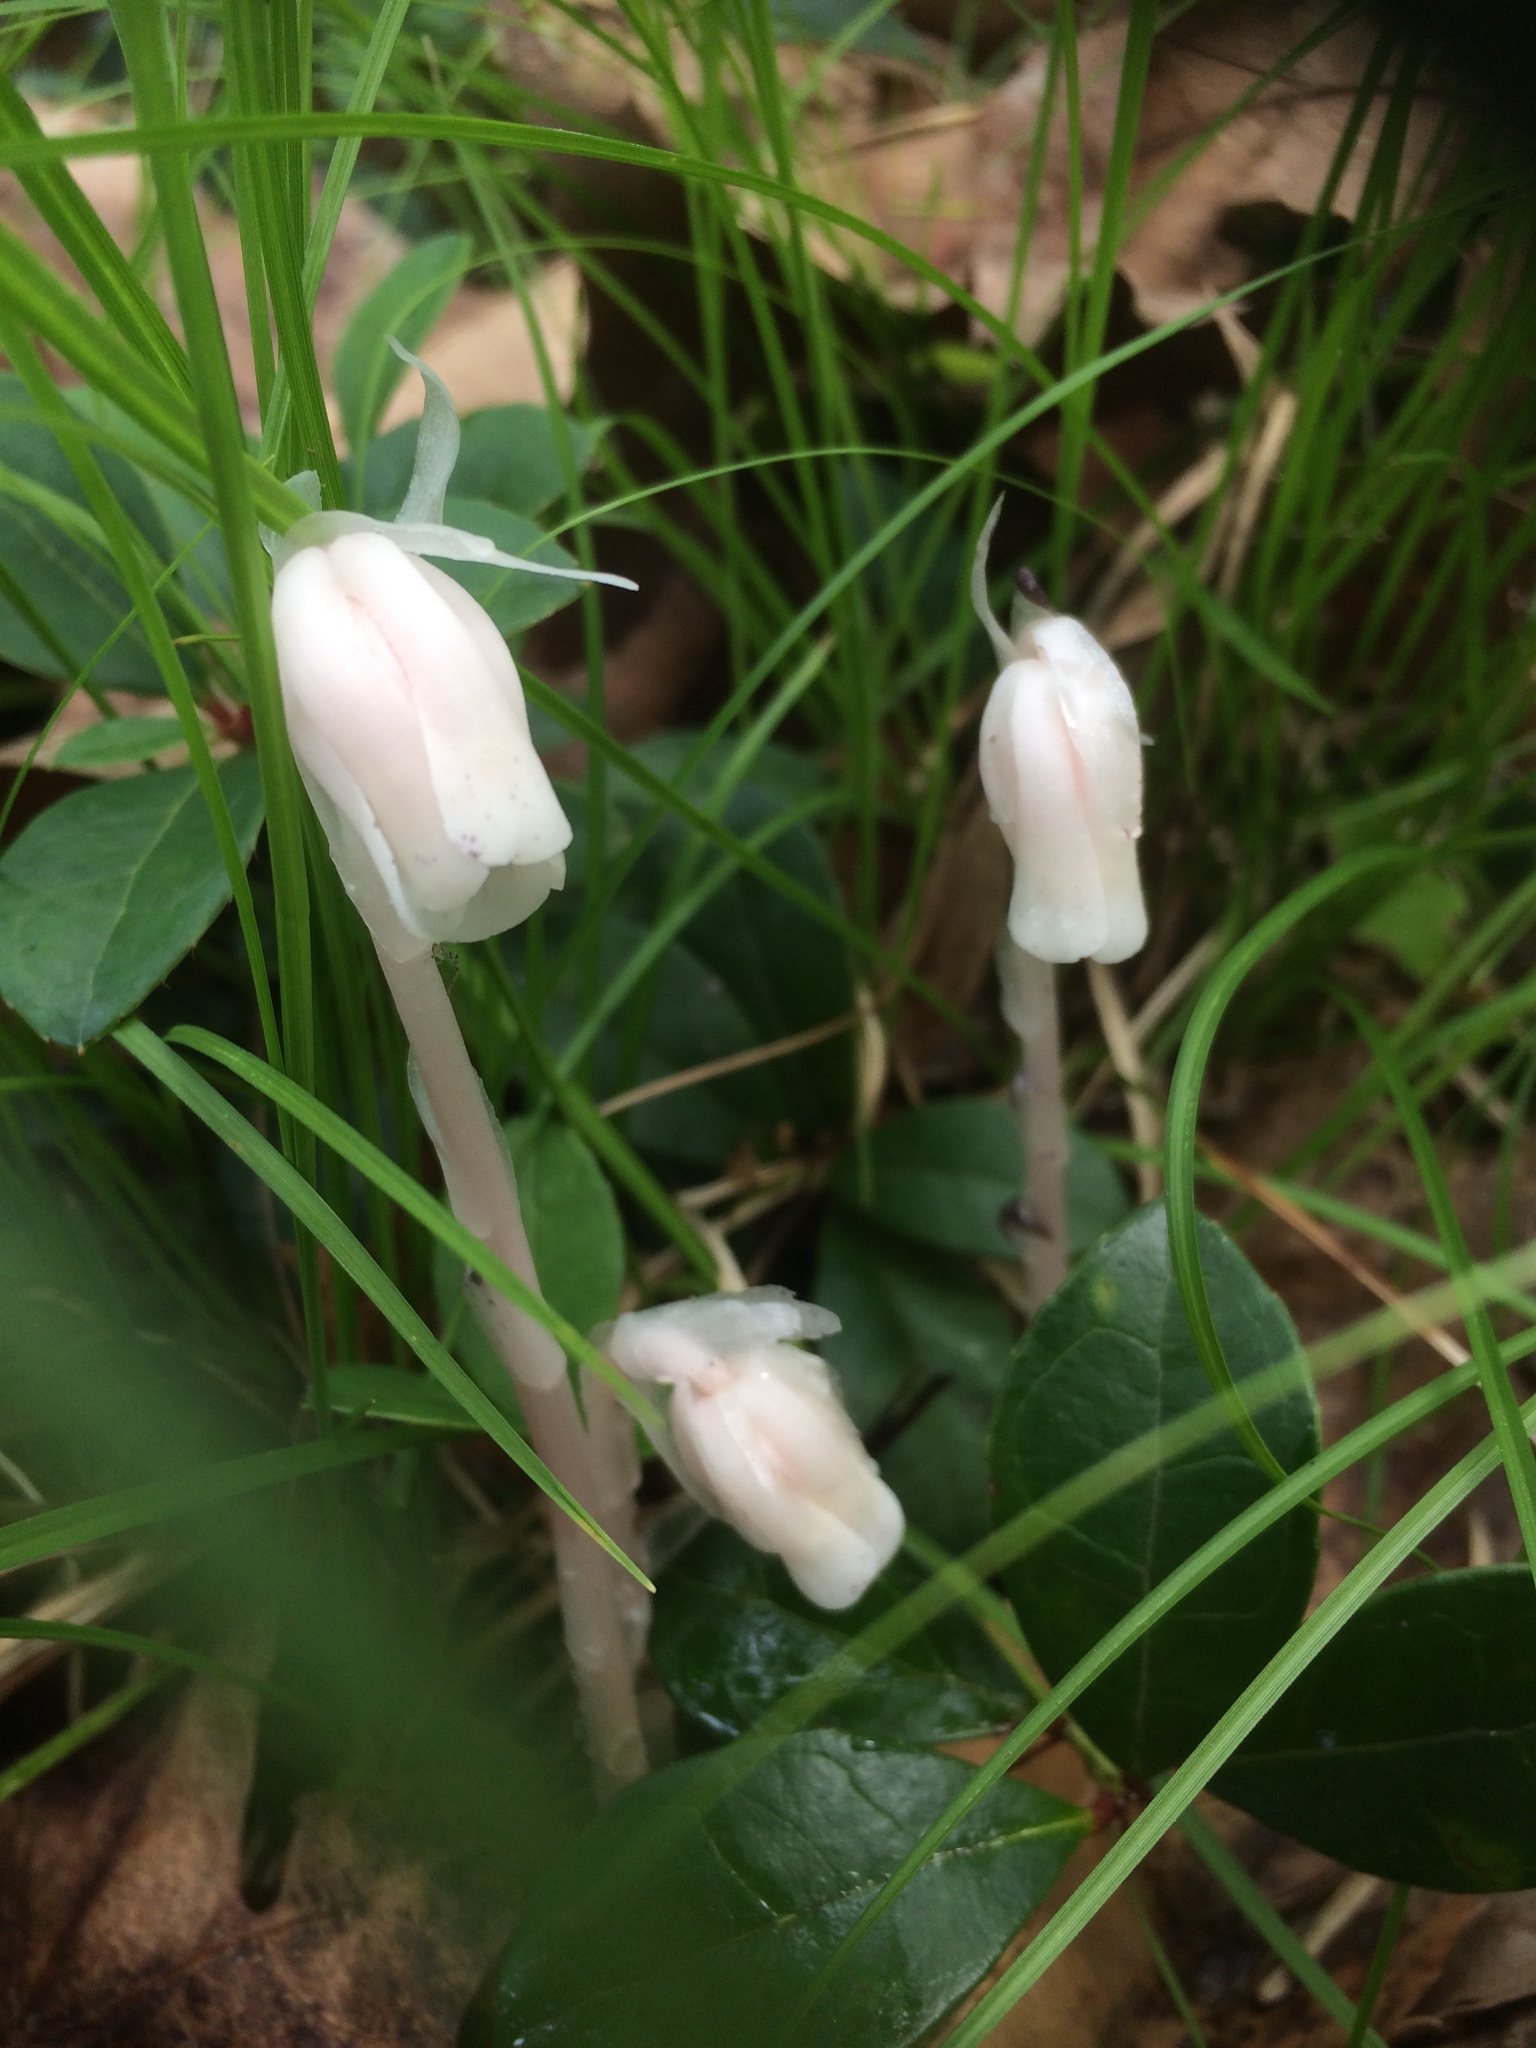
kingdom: Plantae
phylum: Tracheophyta
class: Magnoliopsida
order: Ericales
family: Ericaceae
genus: Monotropa
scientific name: Monotropa uniflora
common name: Convulsion root
